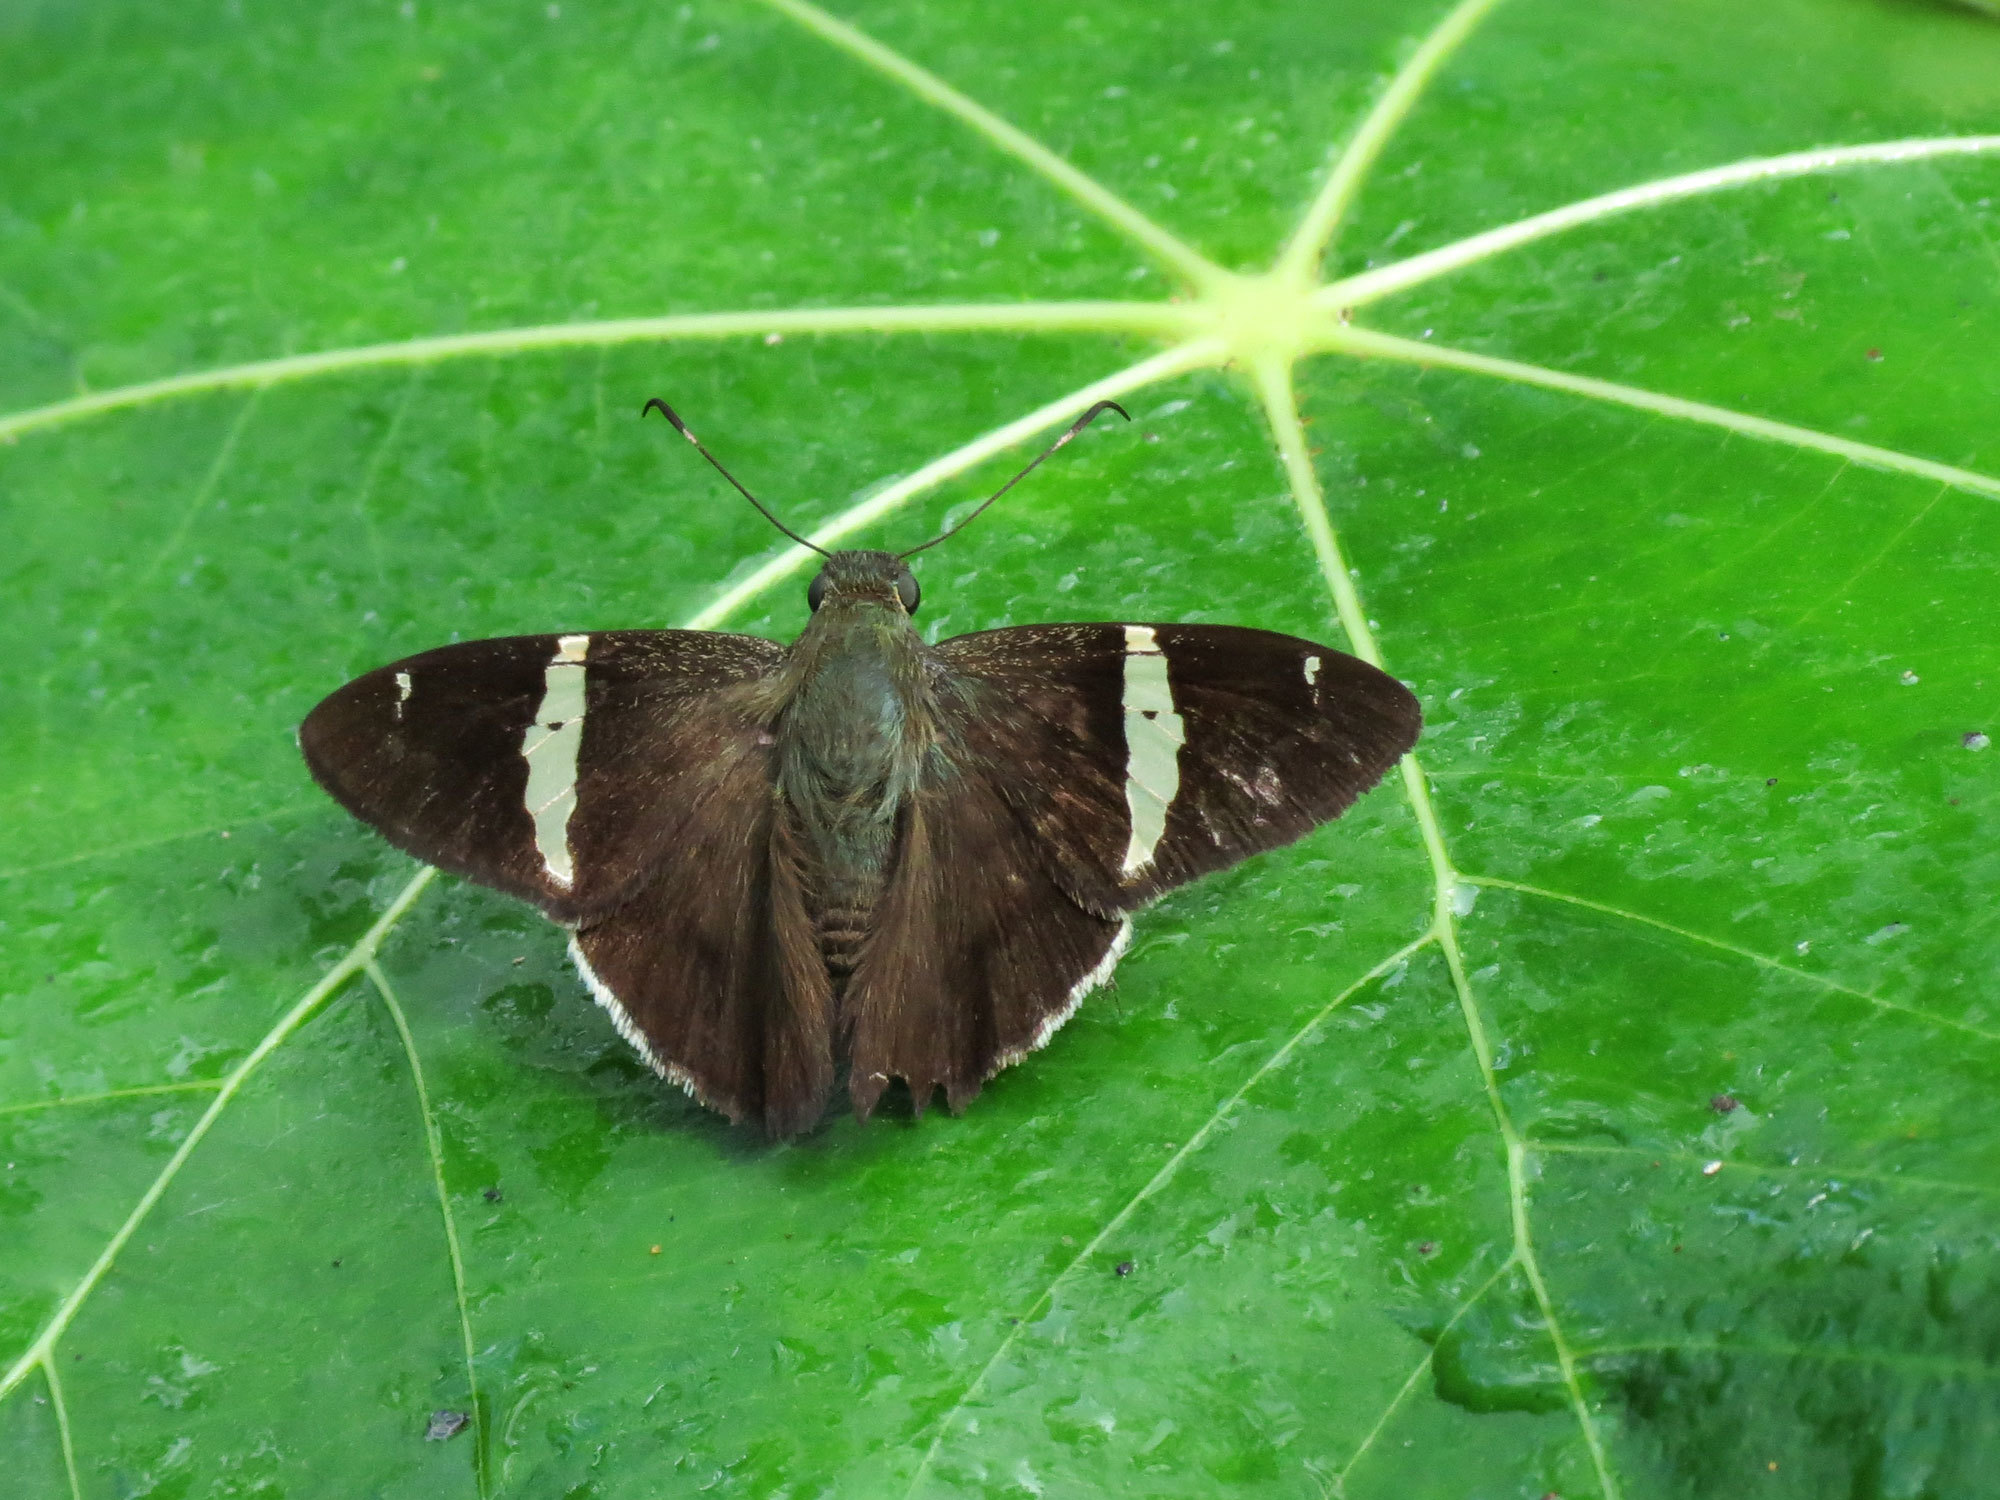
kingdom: Animalia
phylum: Arthropoda
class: Insecta
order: Lepidoptera
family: Hesperiidae
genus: Autochton
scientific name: Autochton longipennis
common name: Spike banded-skipper
